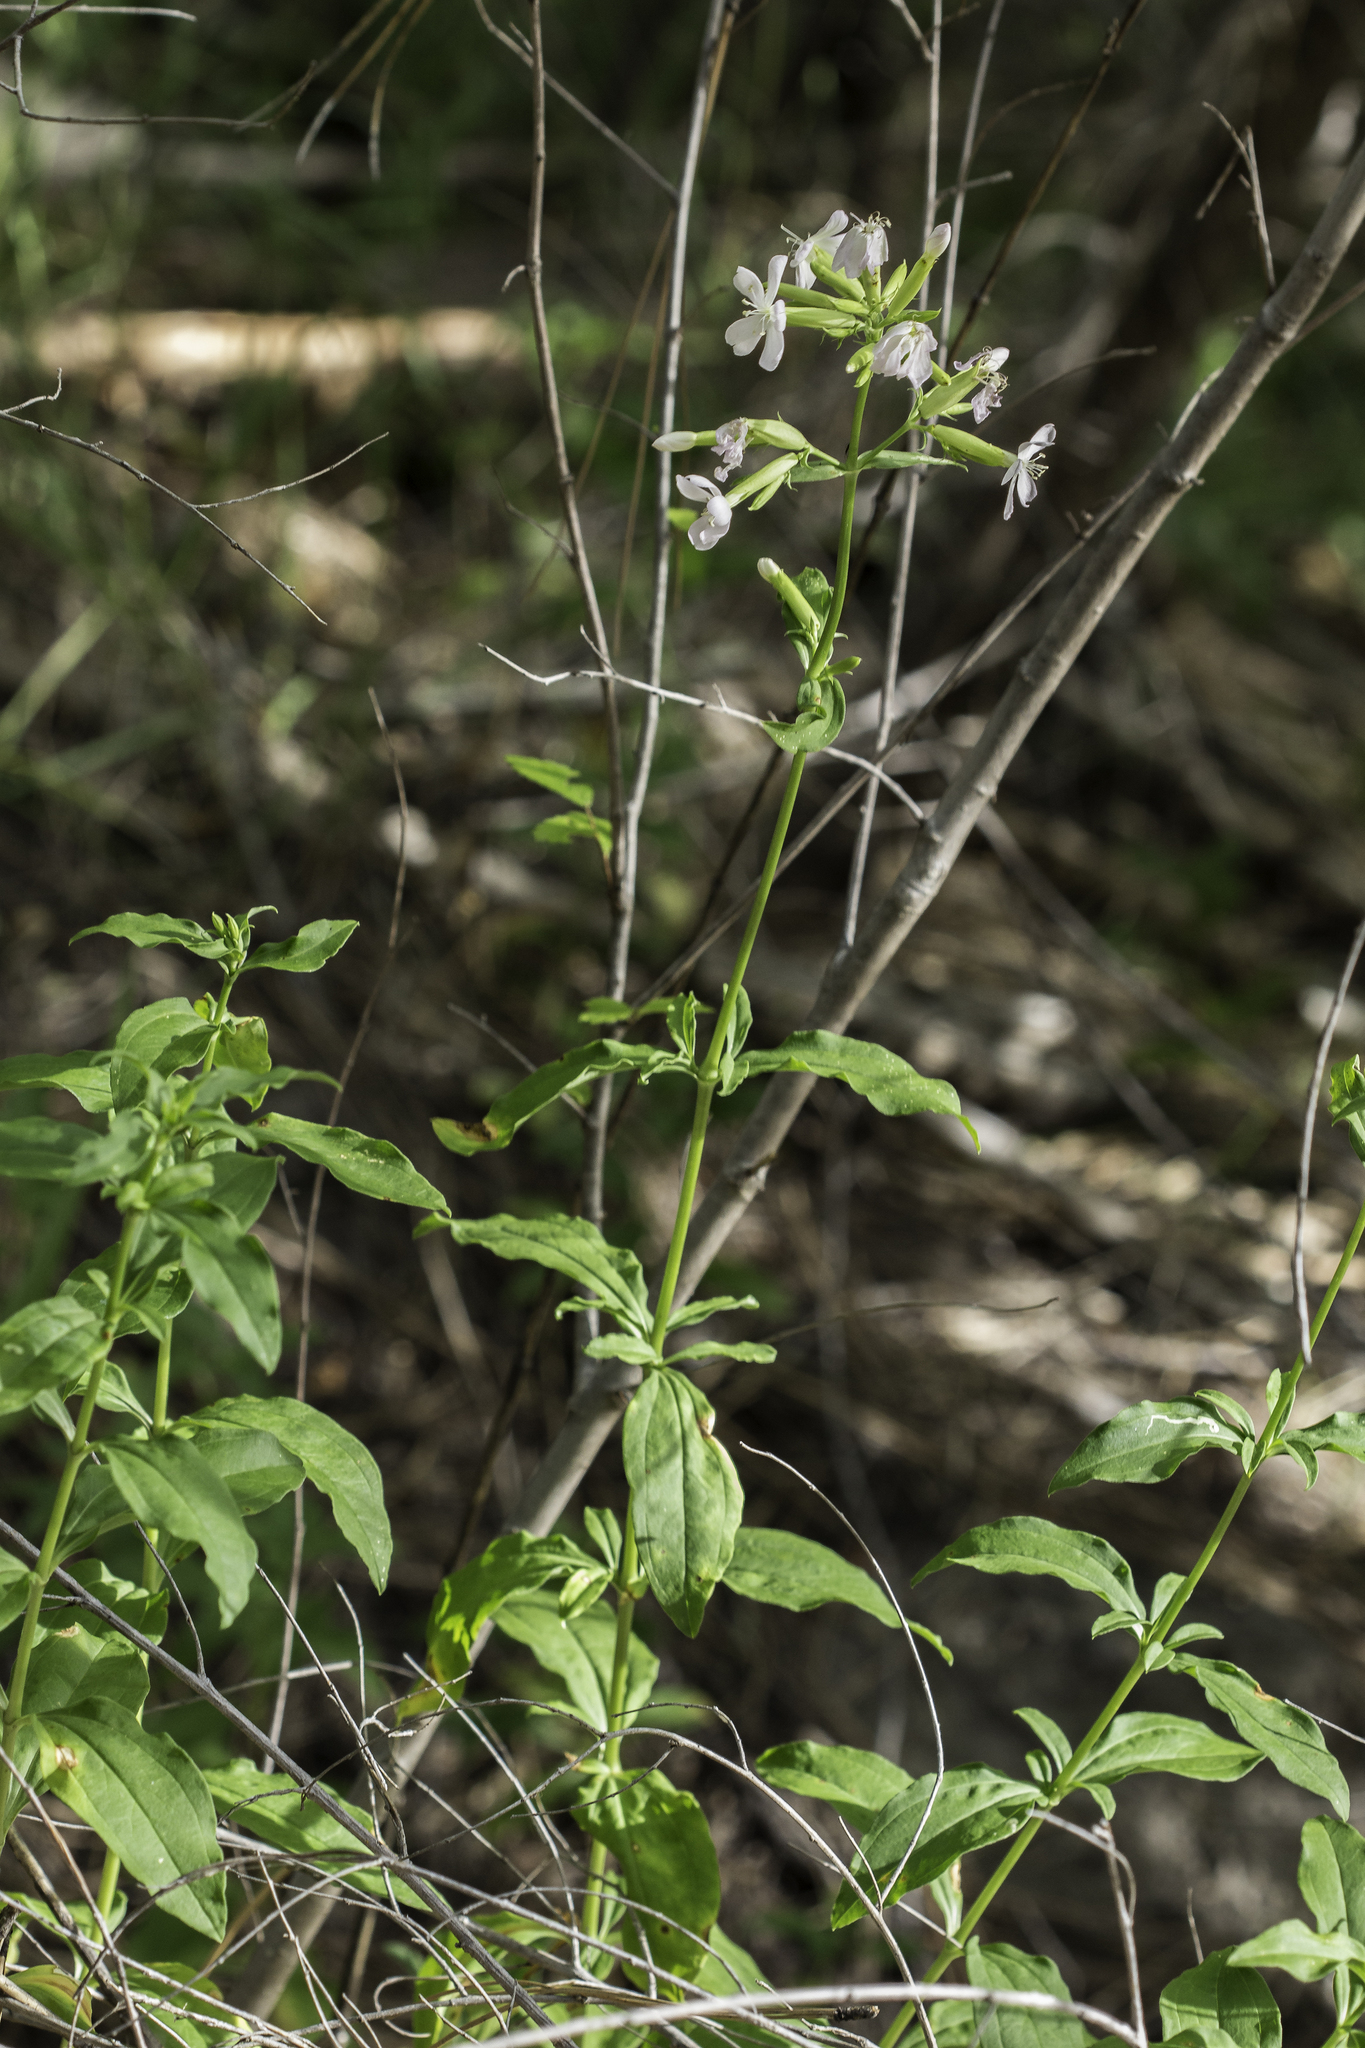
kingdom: Plantae
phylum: Tracheophyta
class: Magnoliopsida
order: Caryophyllales
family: Caryophyllaceae
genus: Saponaria
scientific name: Saponaria officinalis
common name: Soapwort
